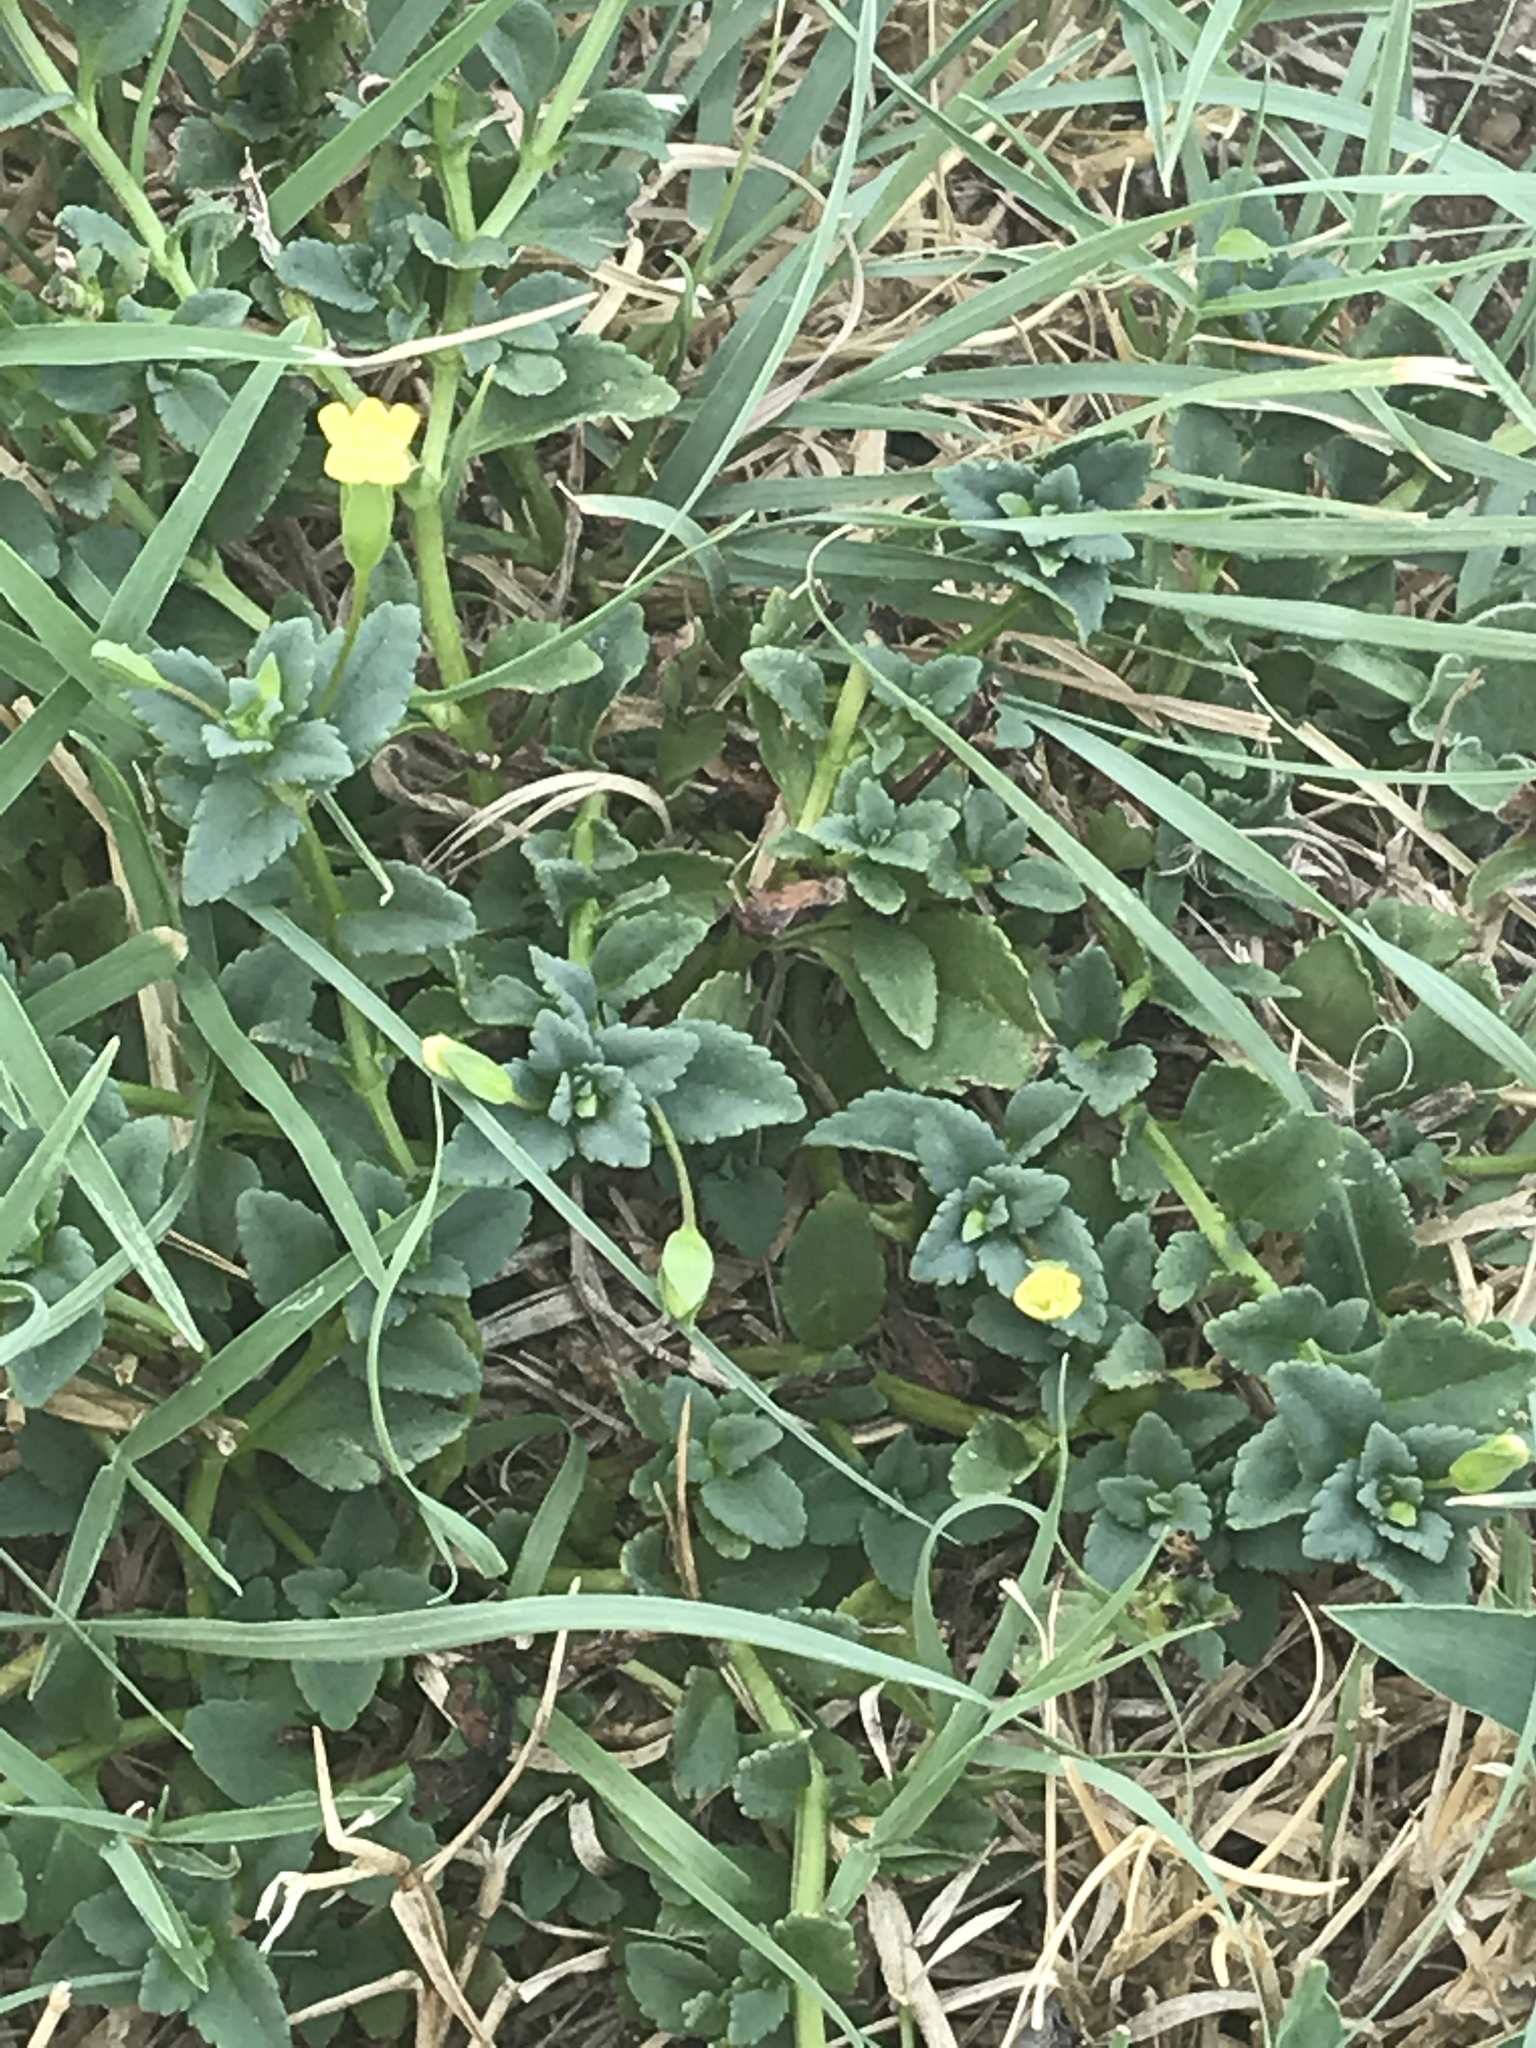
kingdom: Plantae
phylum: Tracheophyta
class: Magnoliopsida
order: Lamiales
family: Plantaginaceae
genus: Mecardonia
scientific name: Mecardonia procumbens
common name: Baby jump-up
